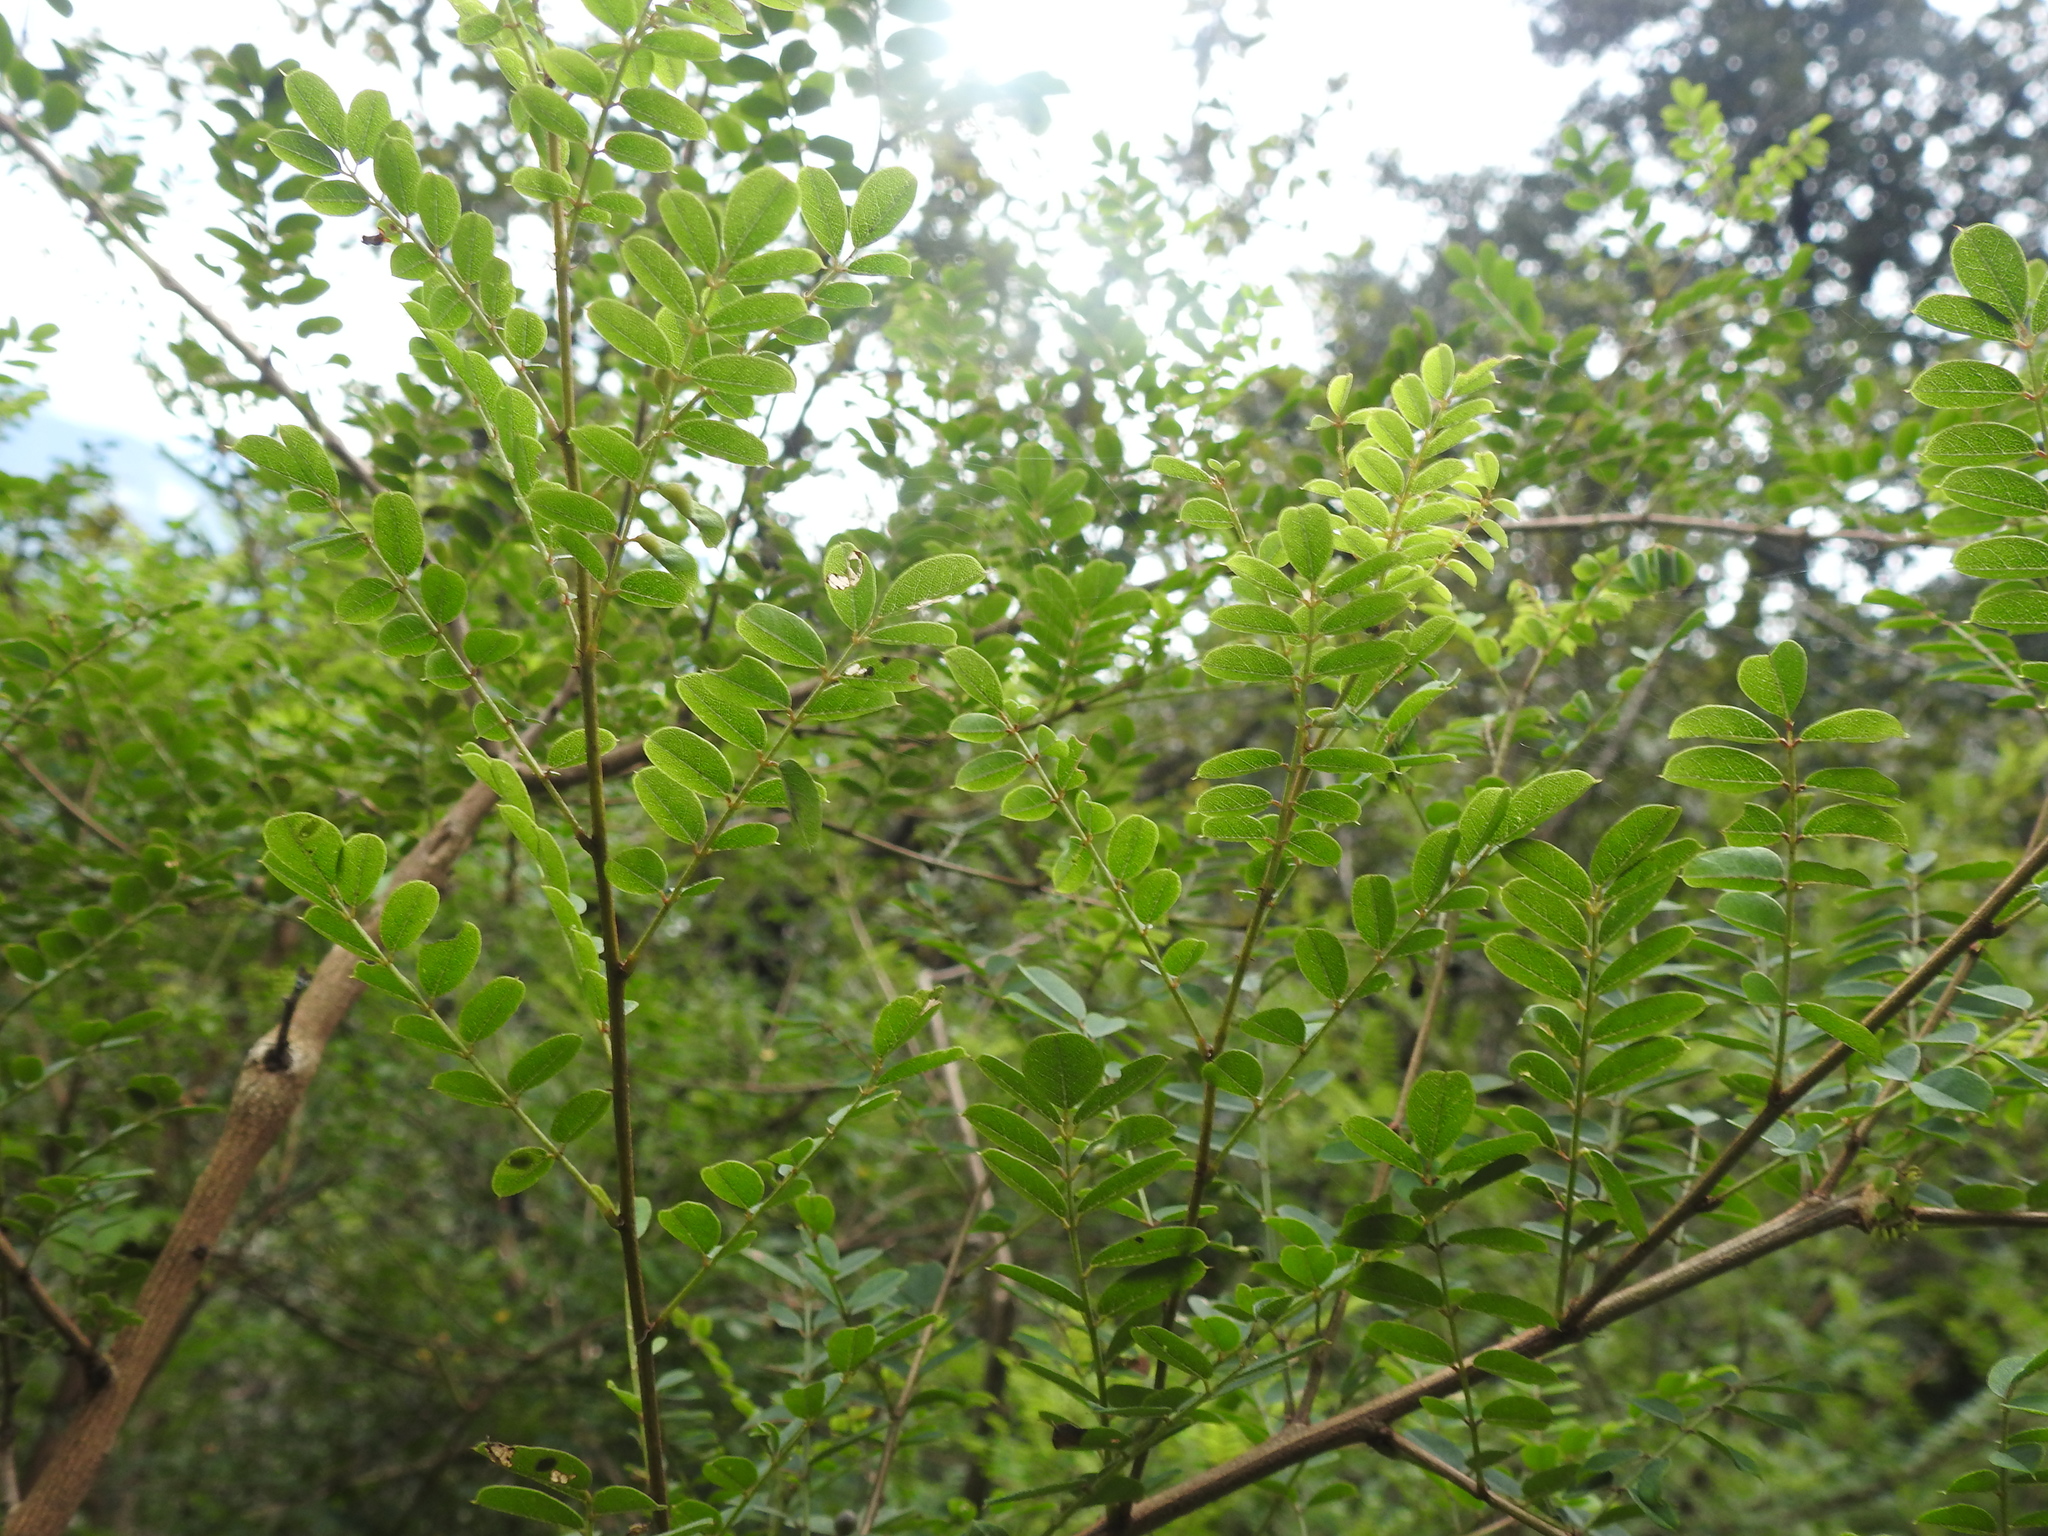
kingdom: Animalia
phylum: Arthropoda
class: Insecta
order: Coleoptera
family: Lucanidae
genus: Dorcus
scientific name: Dorcus nepalensis
